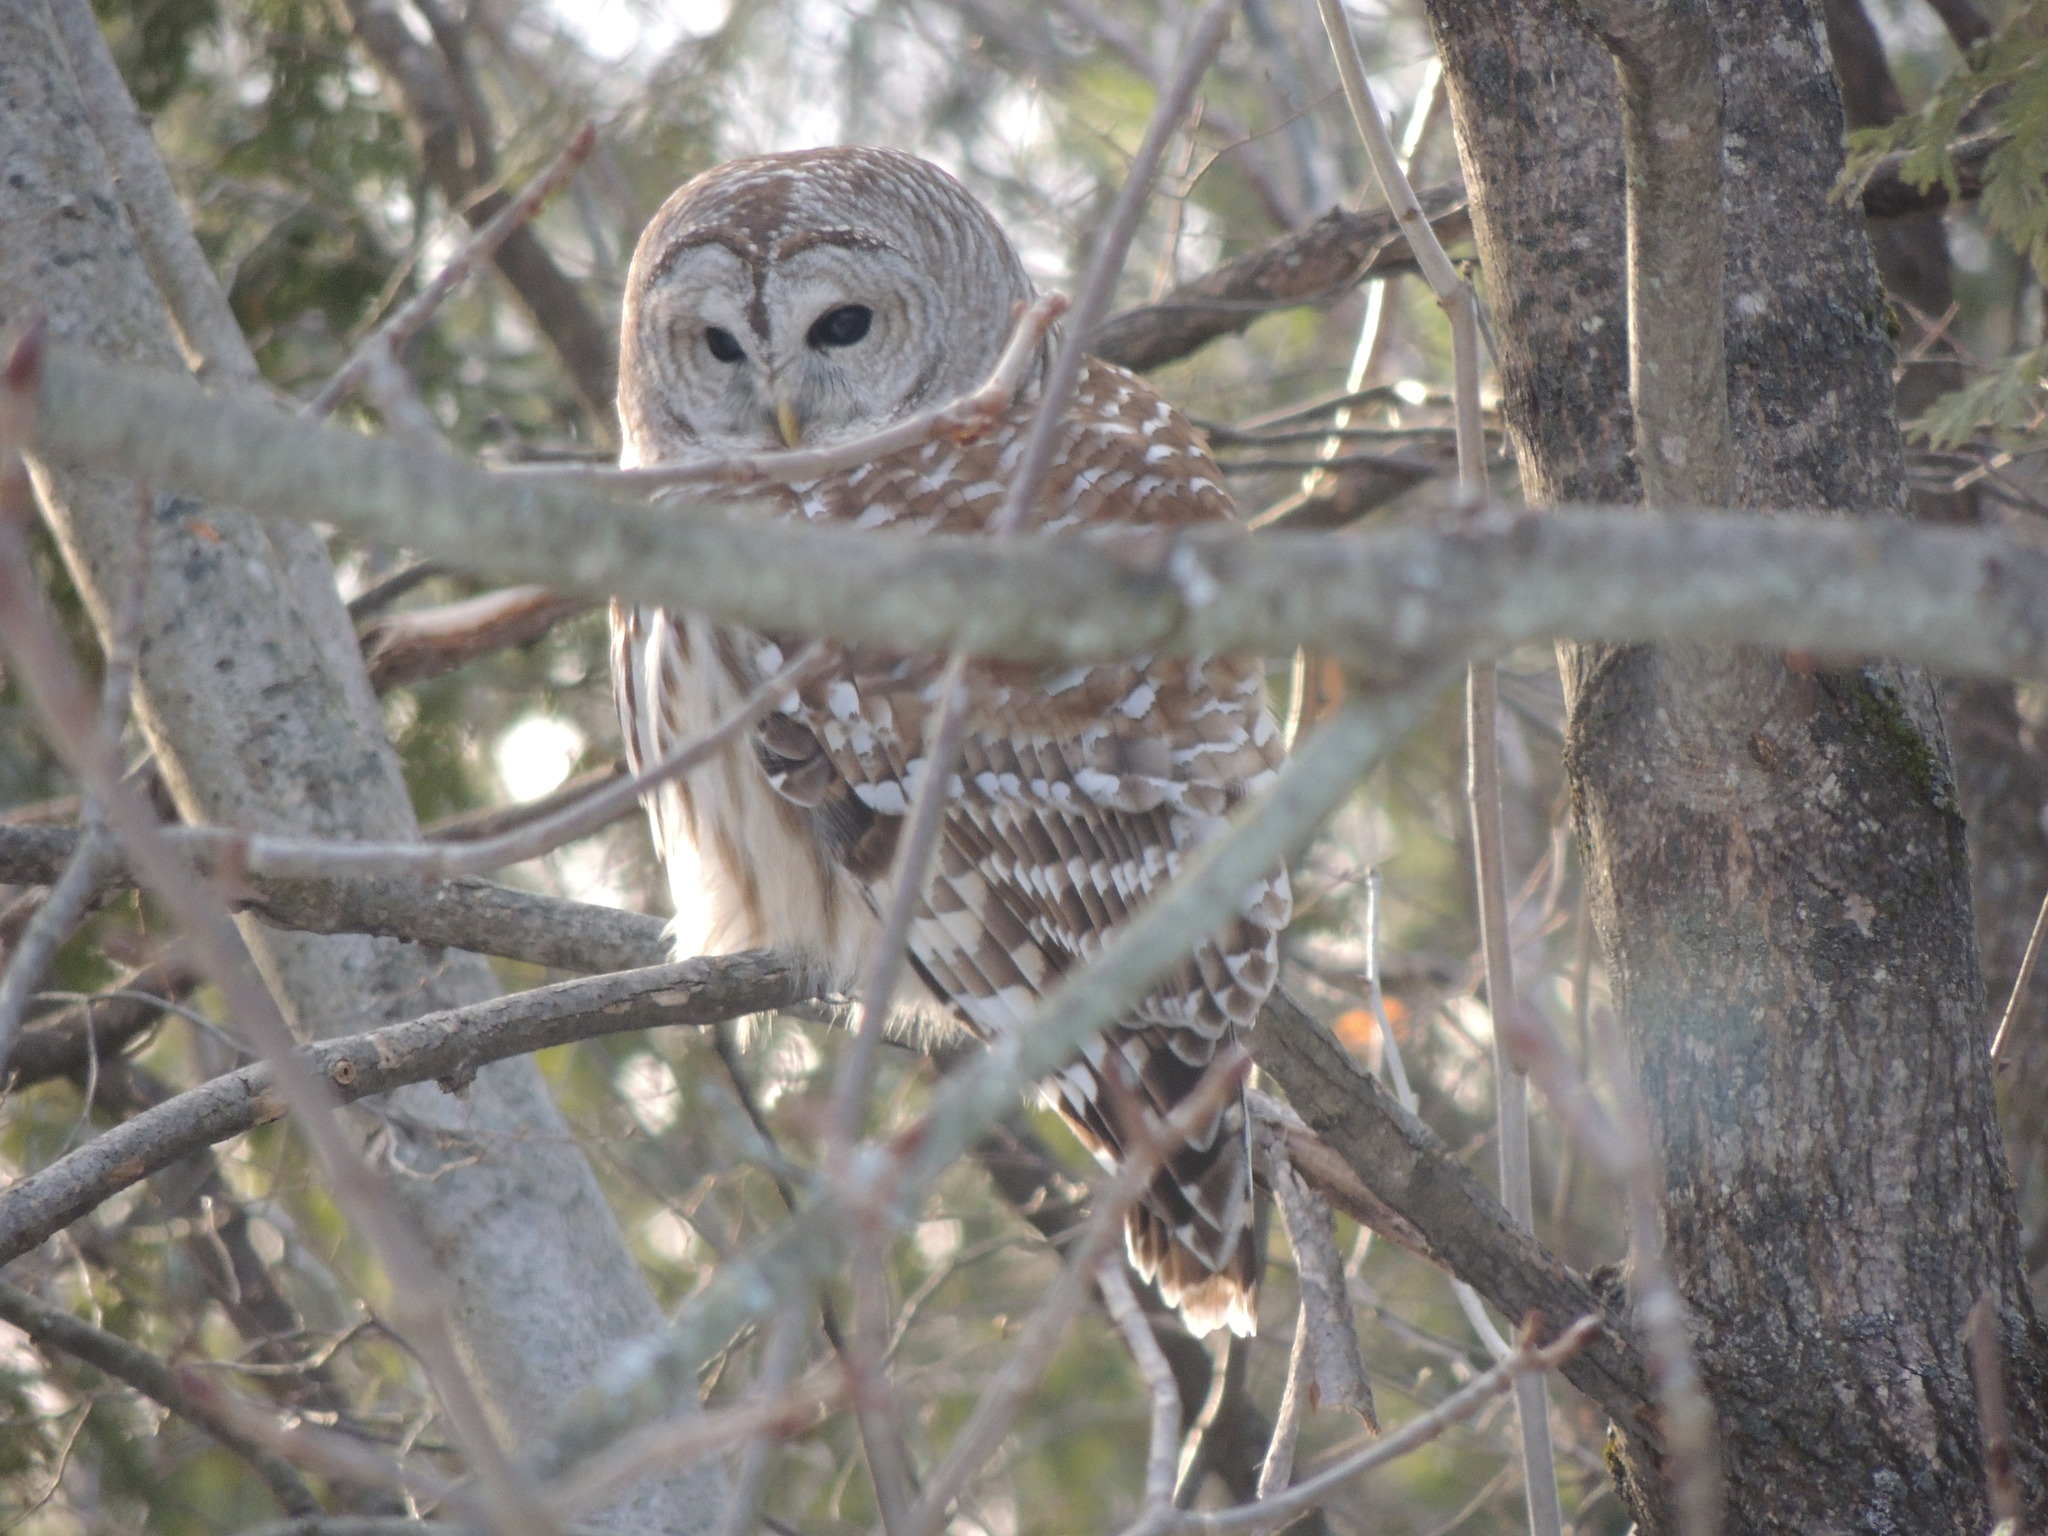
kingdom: Animalia
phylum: Chordata
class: Aves
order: Strigiformes
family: Strigidae
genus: Strix
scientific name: Strix varia
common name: Barred owl
